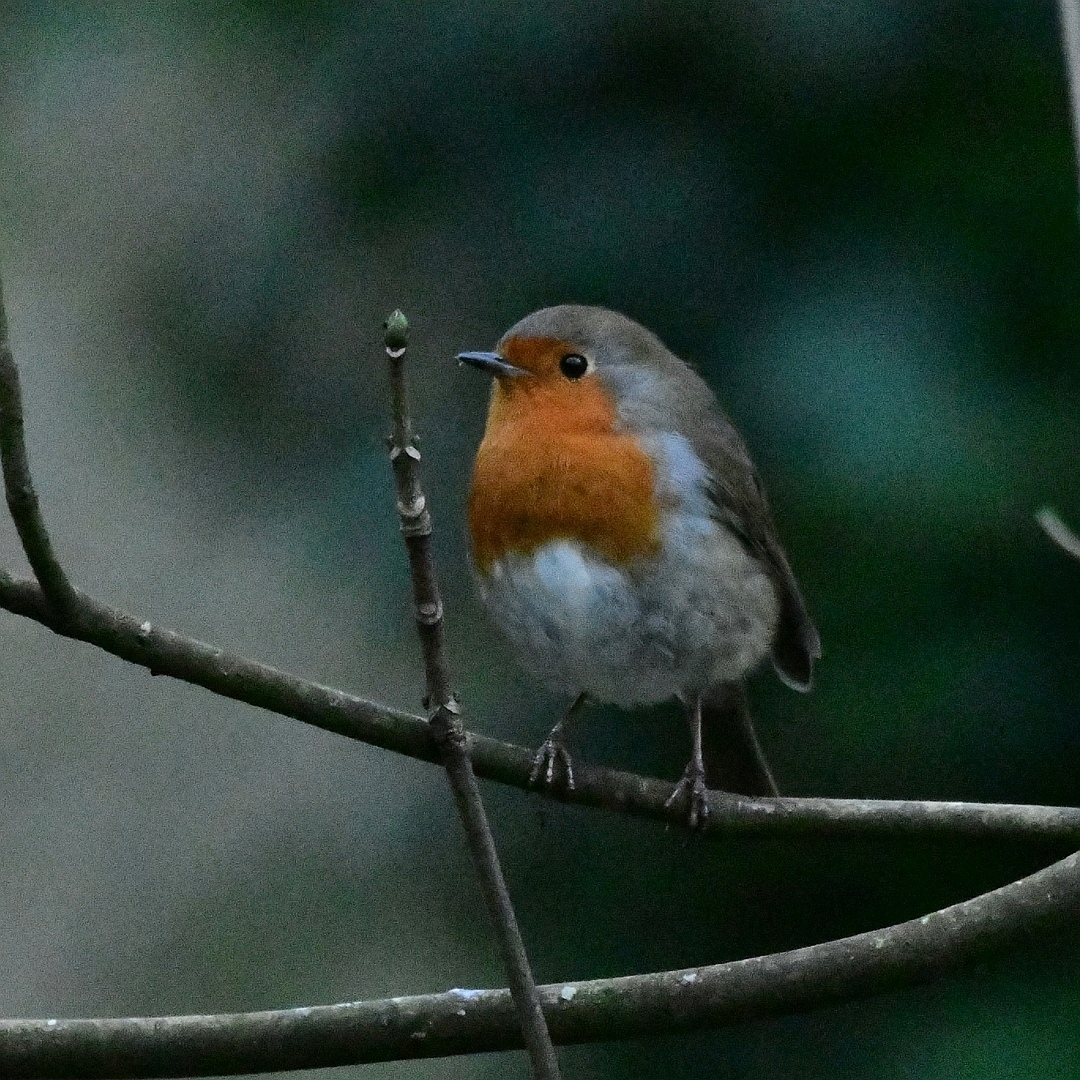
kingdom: Animalia
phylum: Chordata
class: Aves
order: Passeriformes
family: Muscicapidae
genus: Erithacus
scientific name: Erithacus rubecula
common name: European robin
